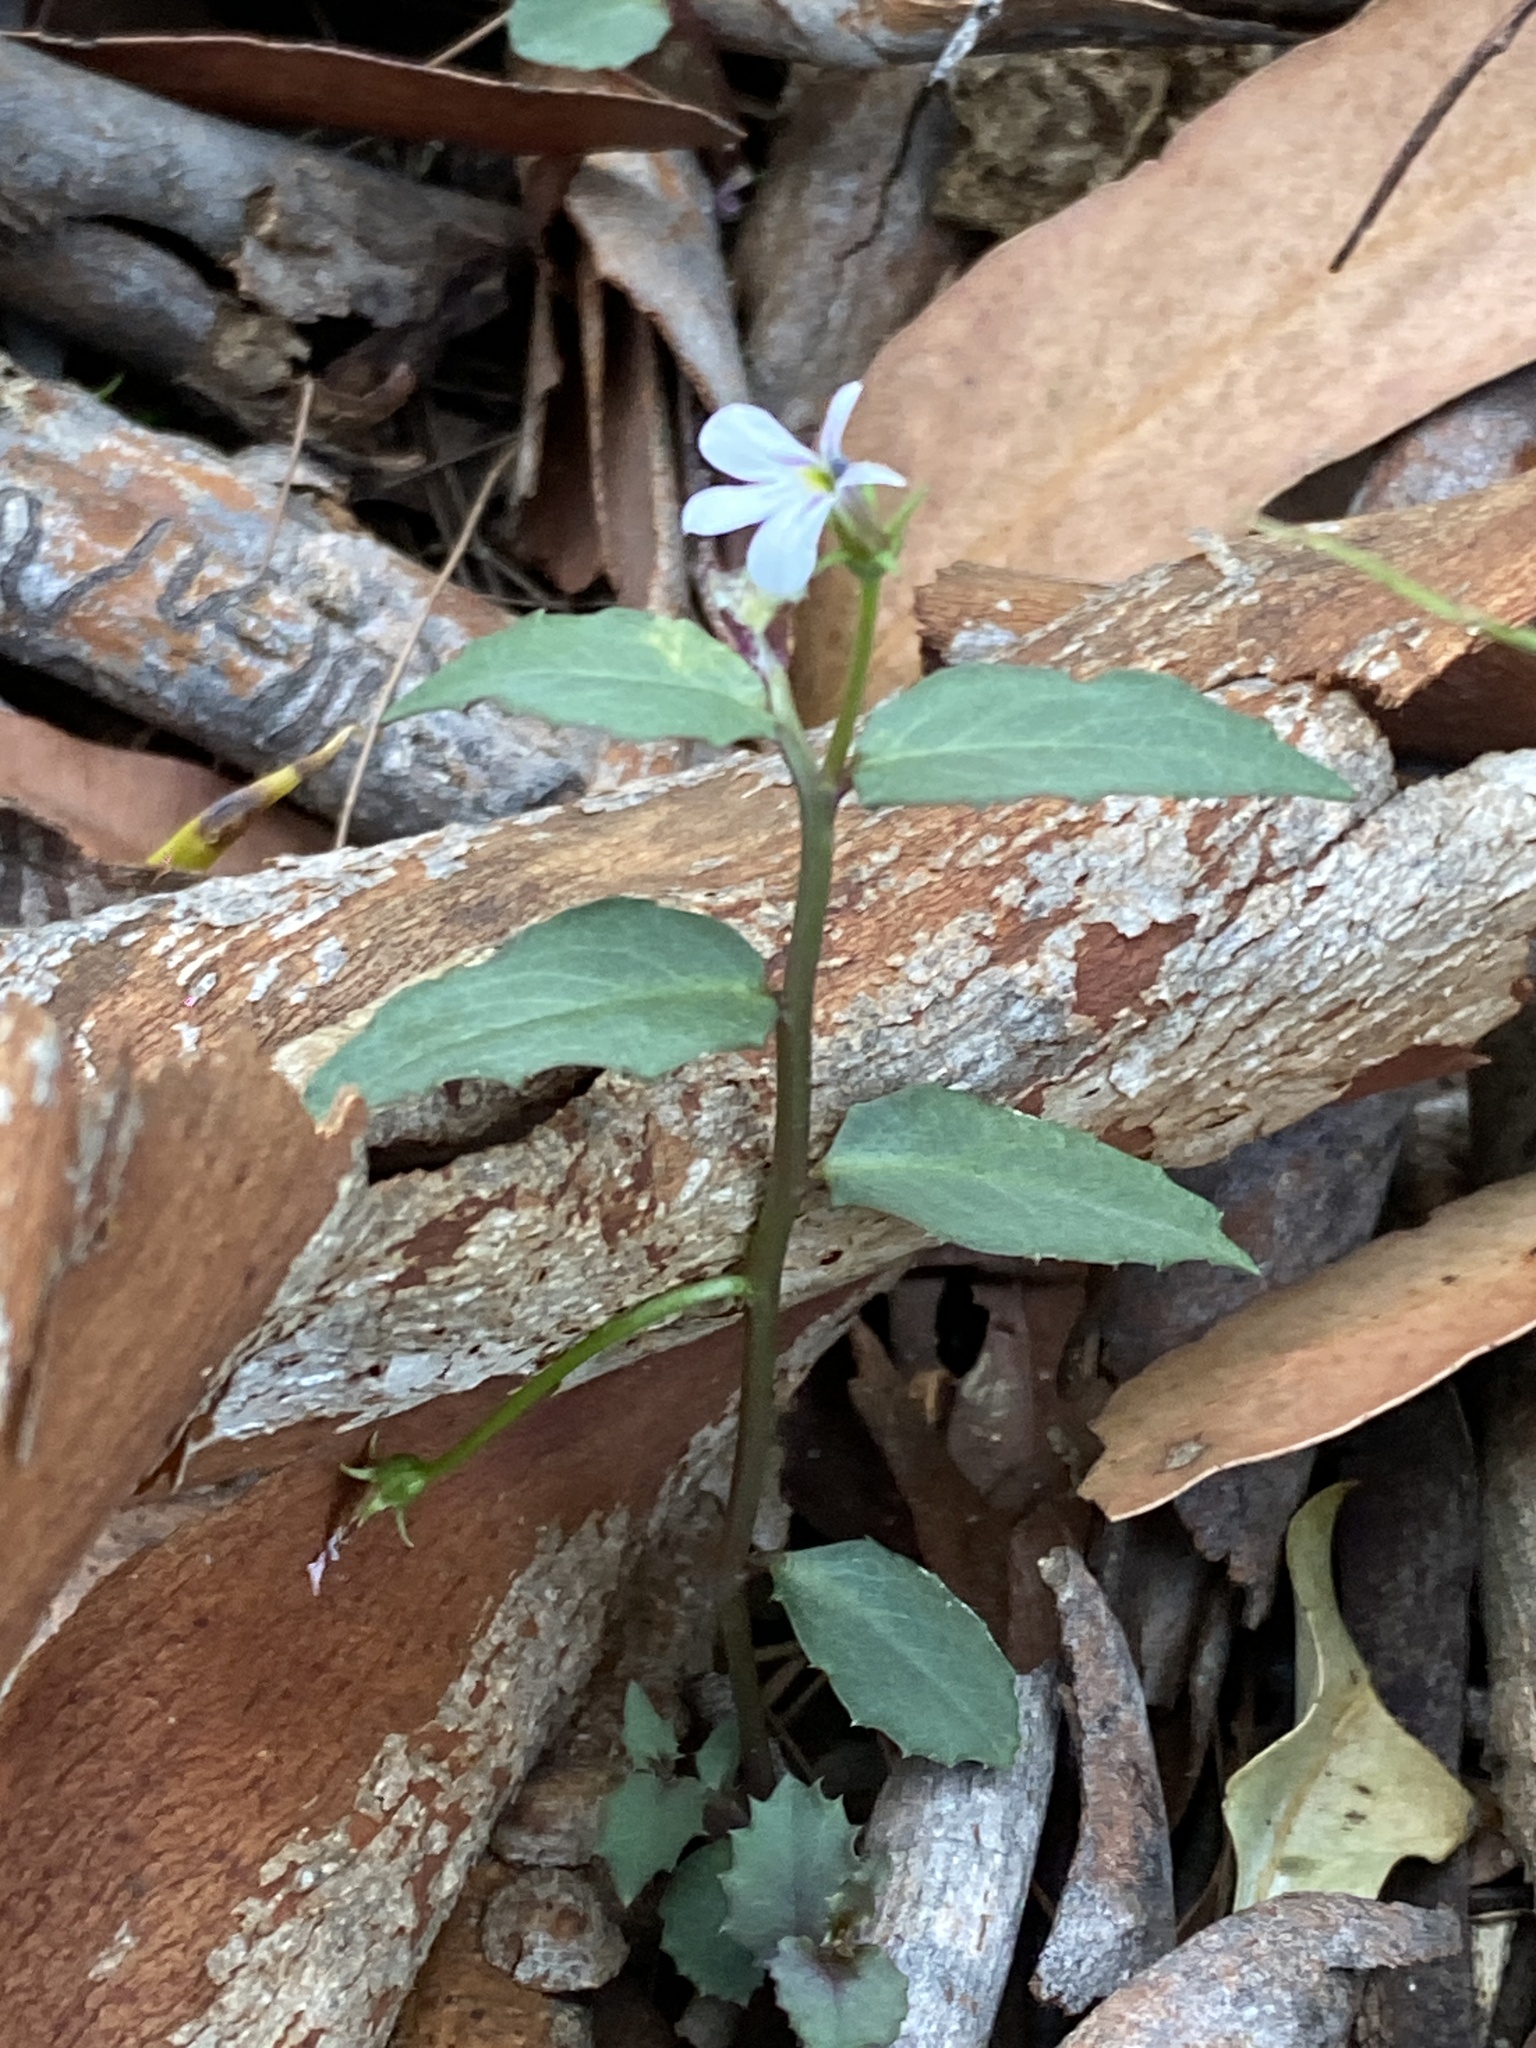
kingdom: Plantae
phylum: Tracheophyta
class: Magnoliopsida
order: Asterales
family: Campanulaceae
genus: Lobelia
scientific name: Lobelia purpurascens
